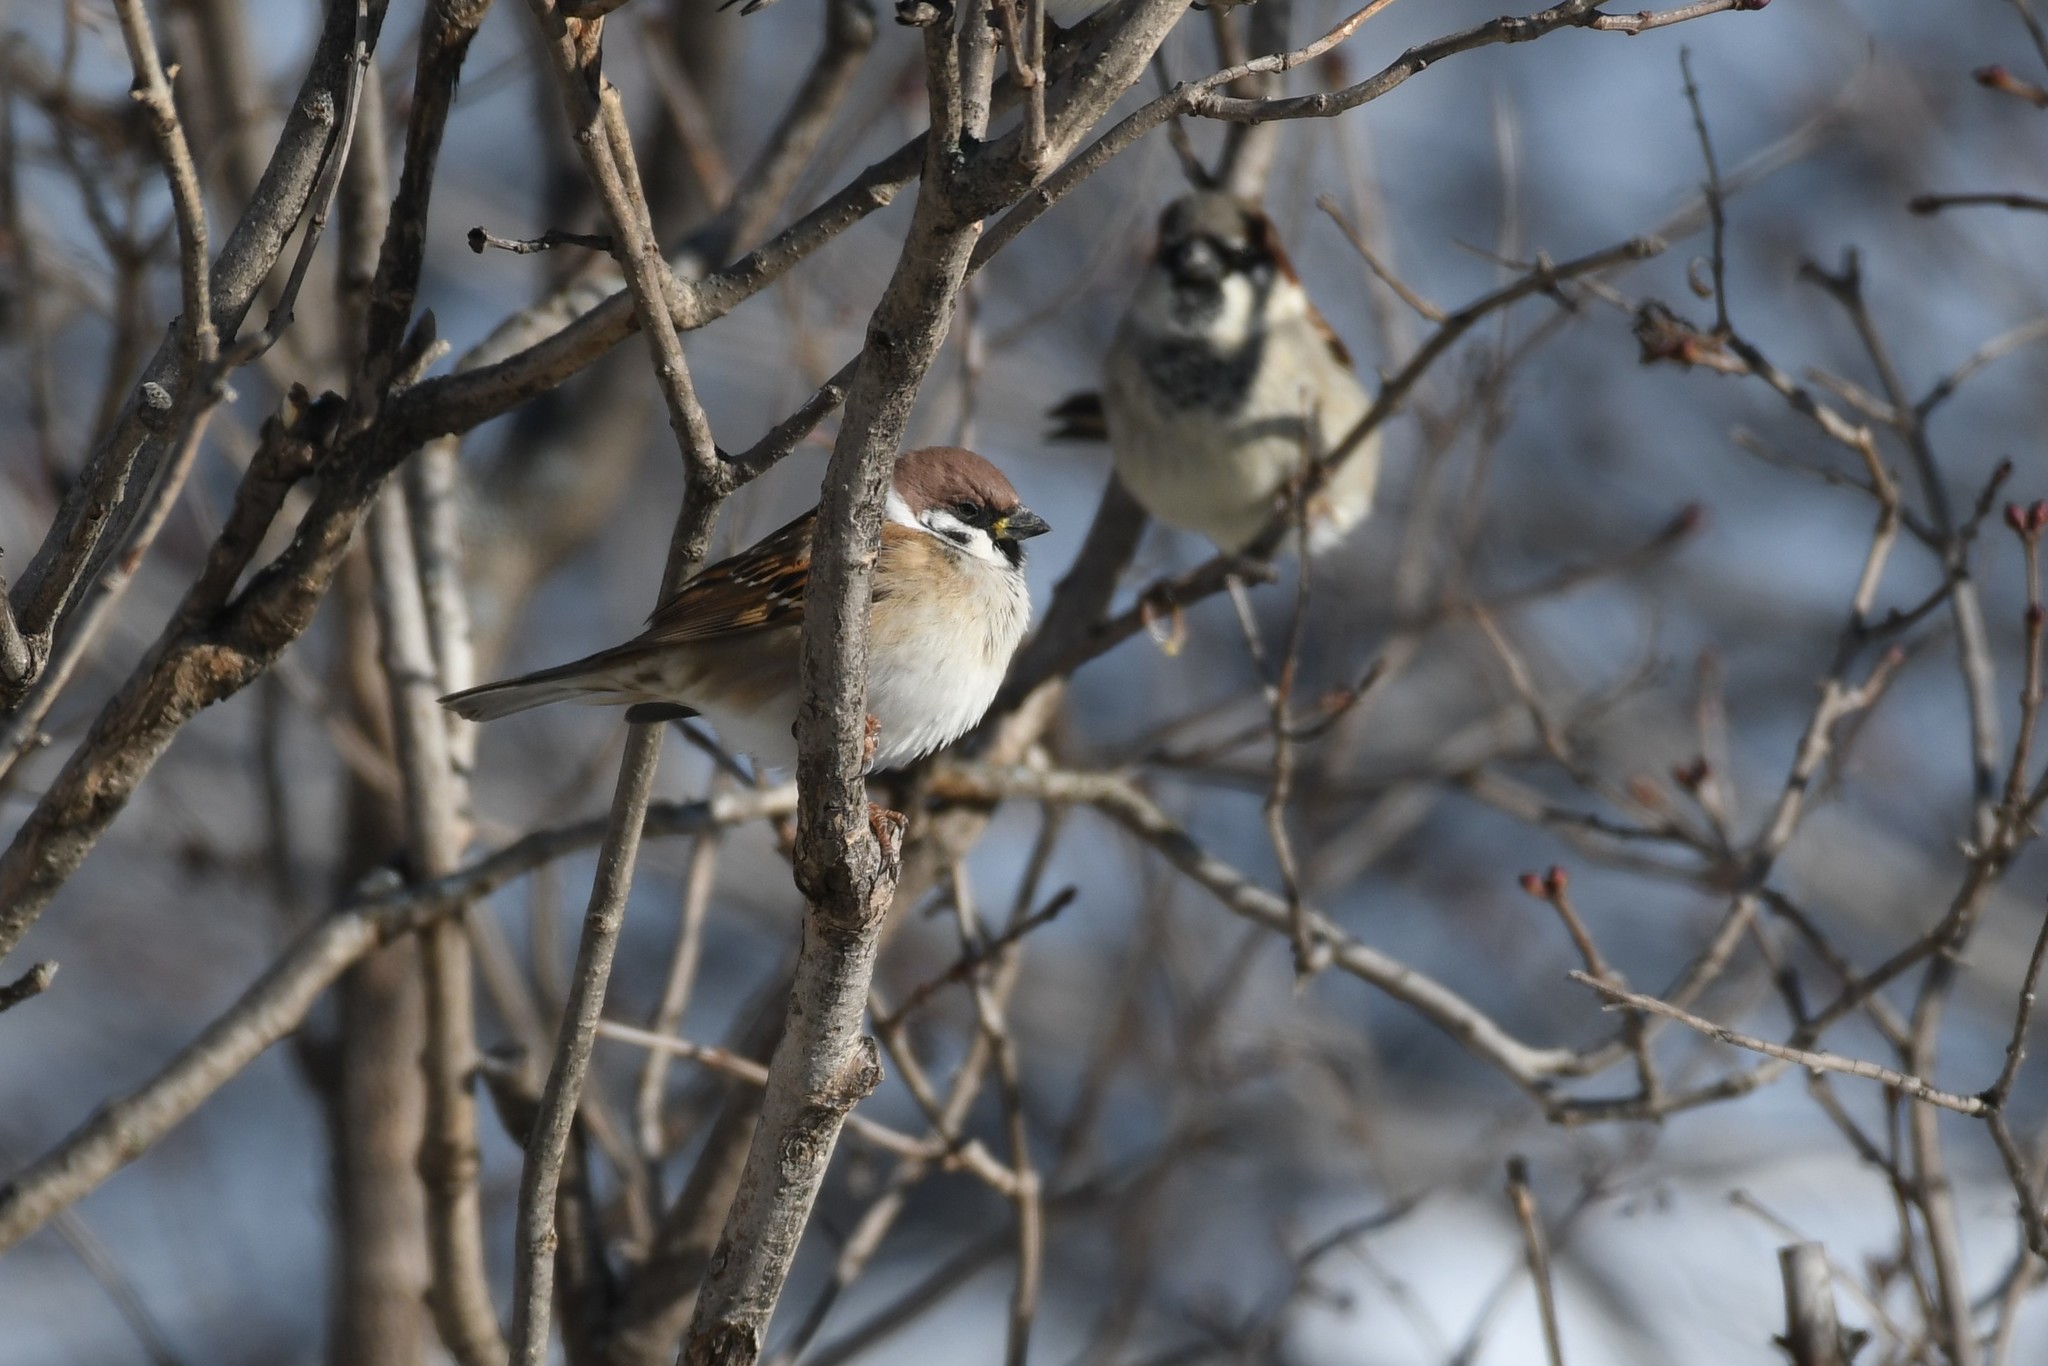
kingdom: Animalia
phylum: Chordata
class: Aves
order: Passeriformes
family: Passeridae
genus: Passer
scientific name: Passer montanus
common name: Eurasian tree sparrow
